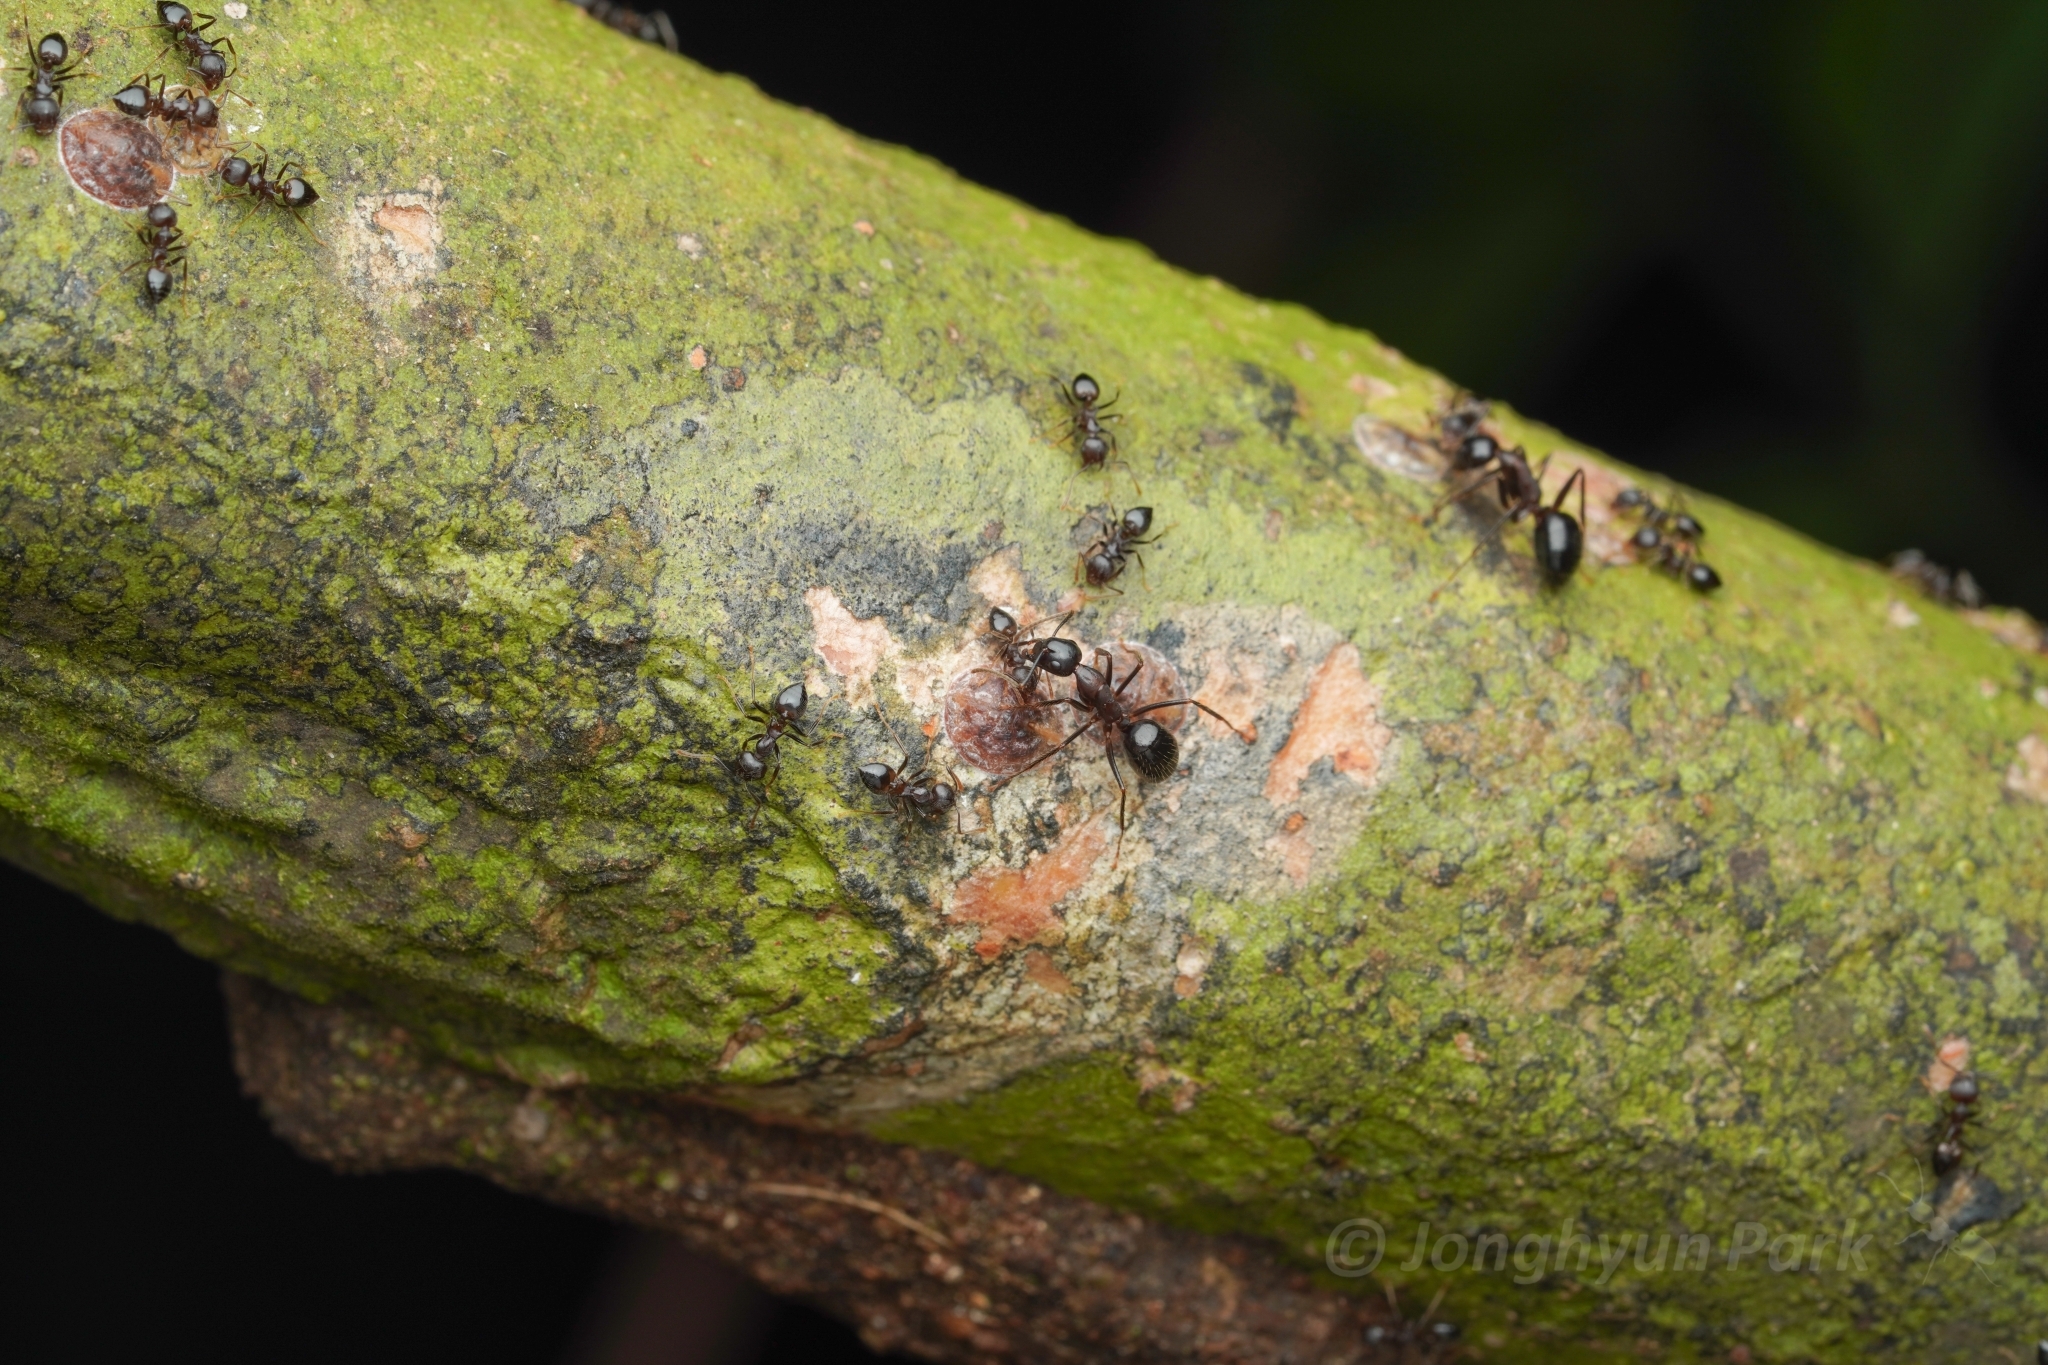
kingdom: Animalia
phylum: Arthropoda
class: Insecta
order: Hymenoptera
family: Formicidae
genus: Camponotus
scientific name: Camponotus rufifemur
